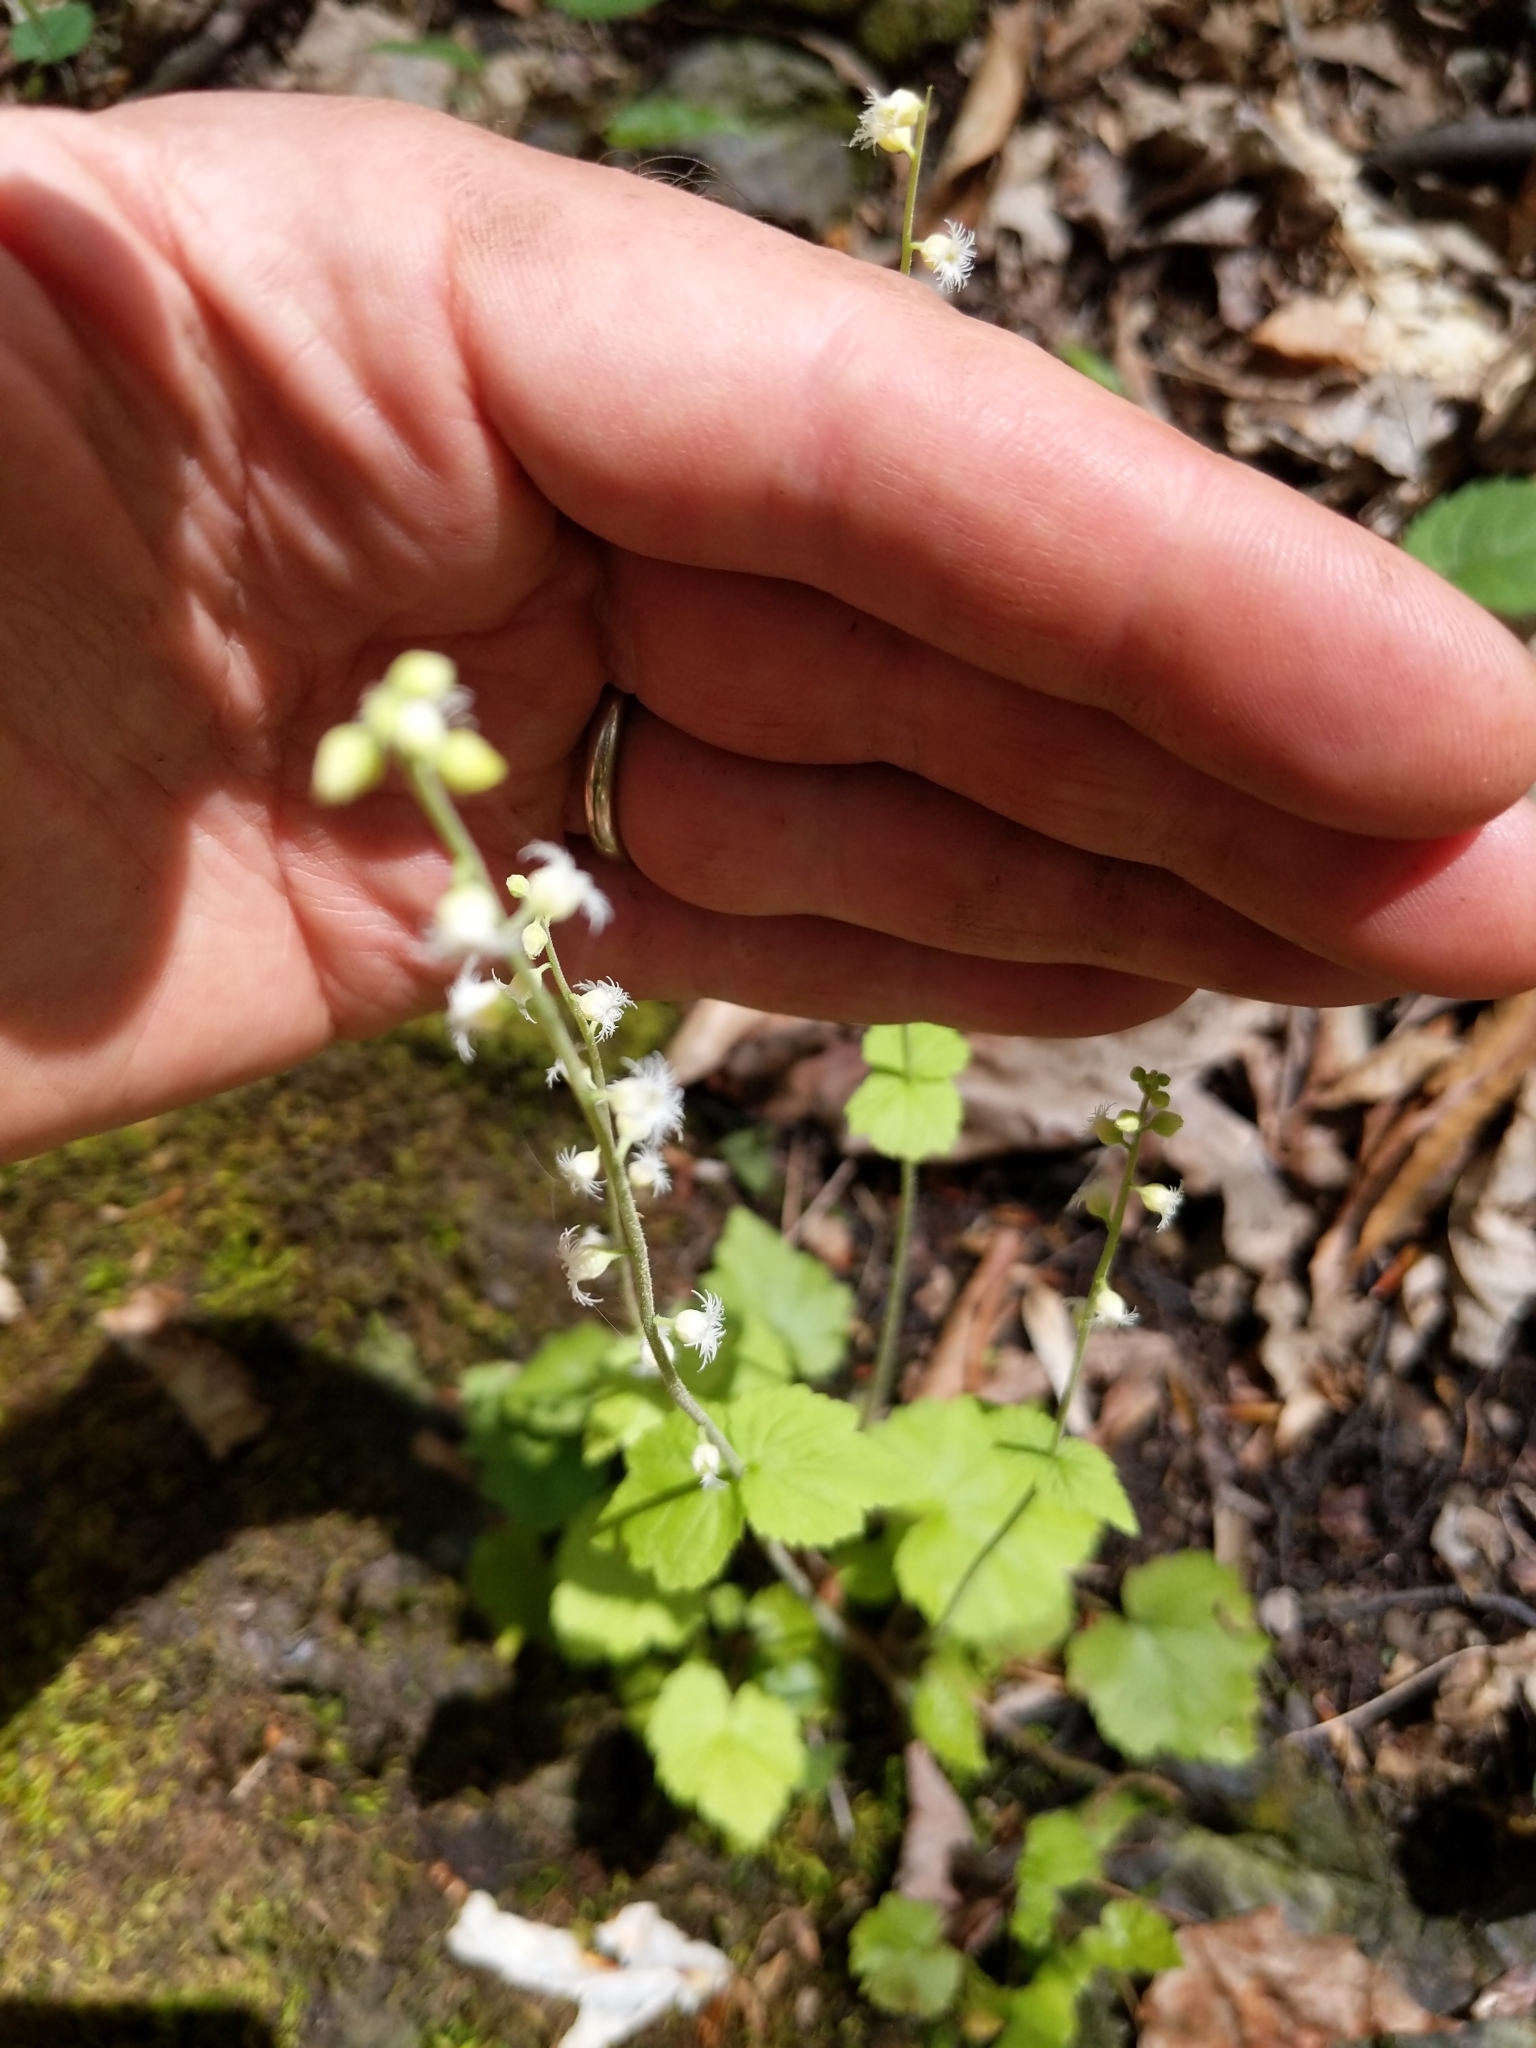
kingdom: Plantae
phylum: Tracheophyta
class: Magnoliopsida
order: Saxifragales
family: Saxifragaceae
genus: Mitella
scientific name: Mitella diphylla
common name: Coolwort
